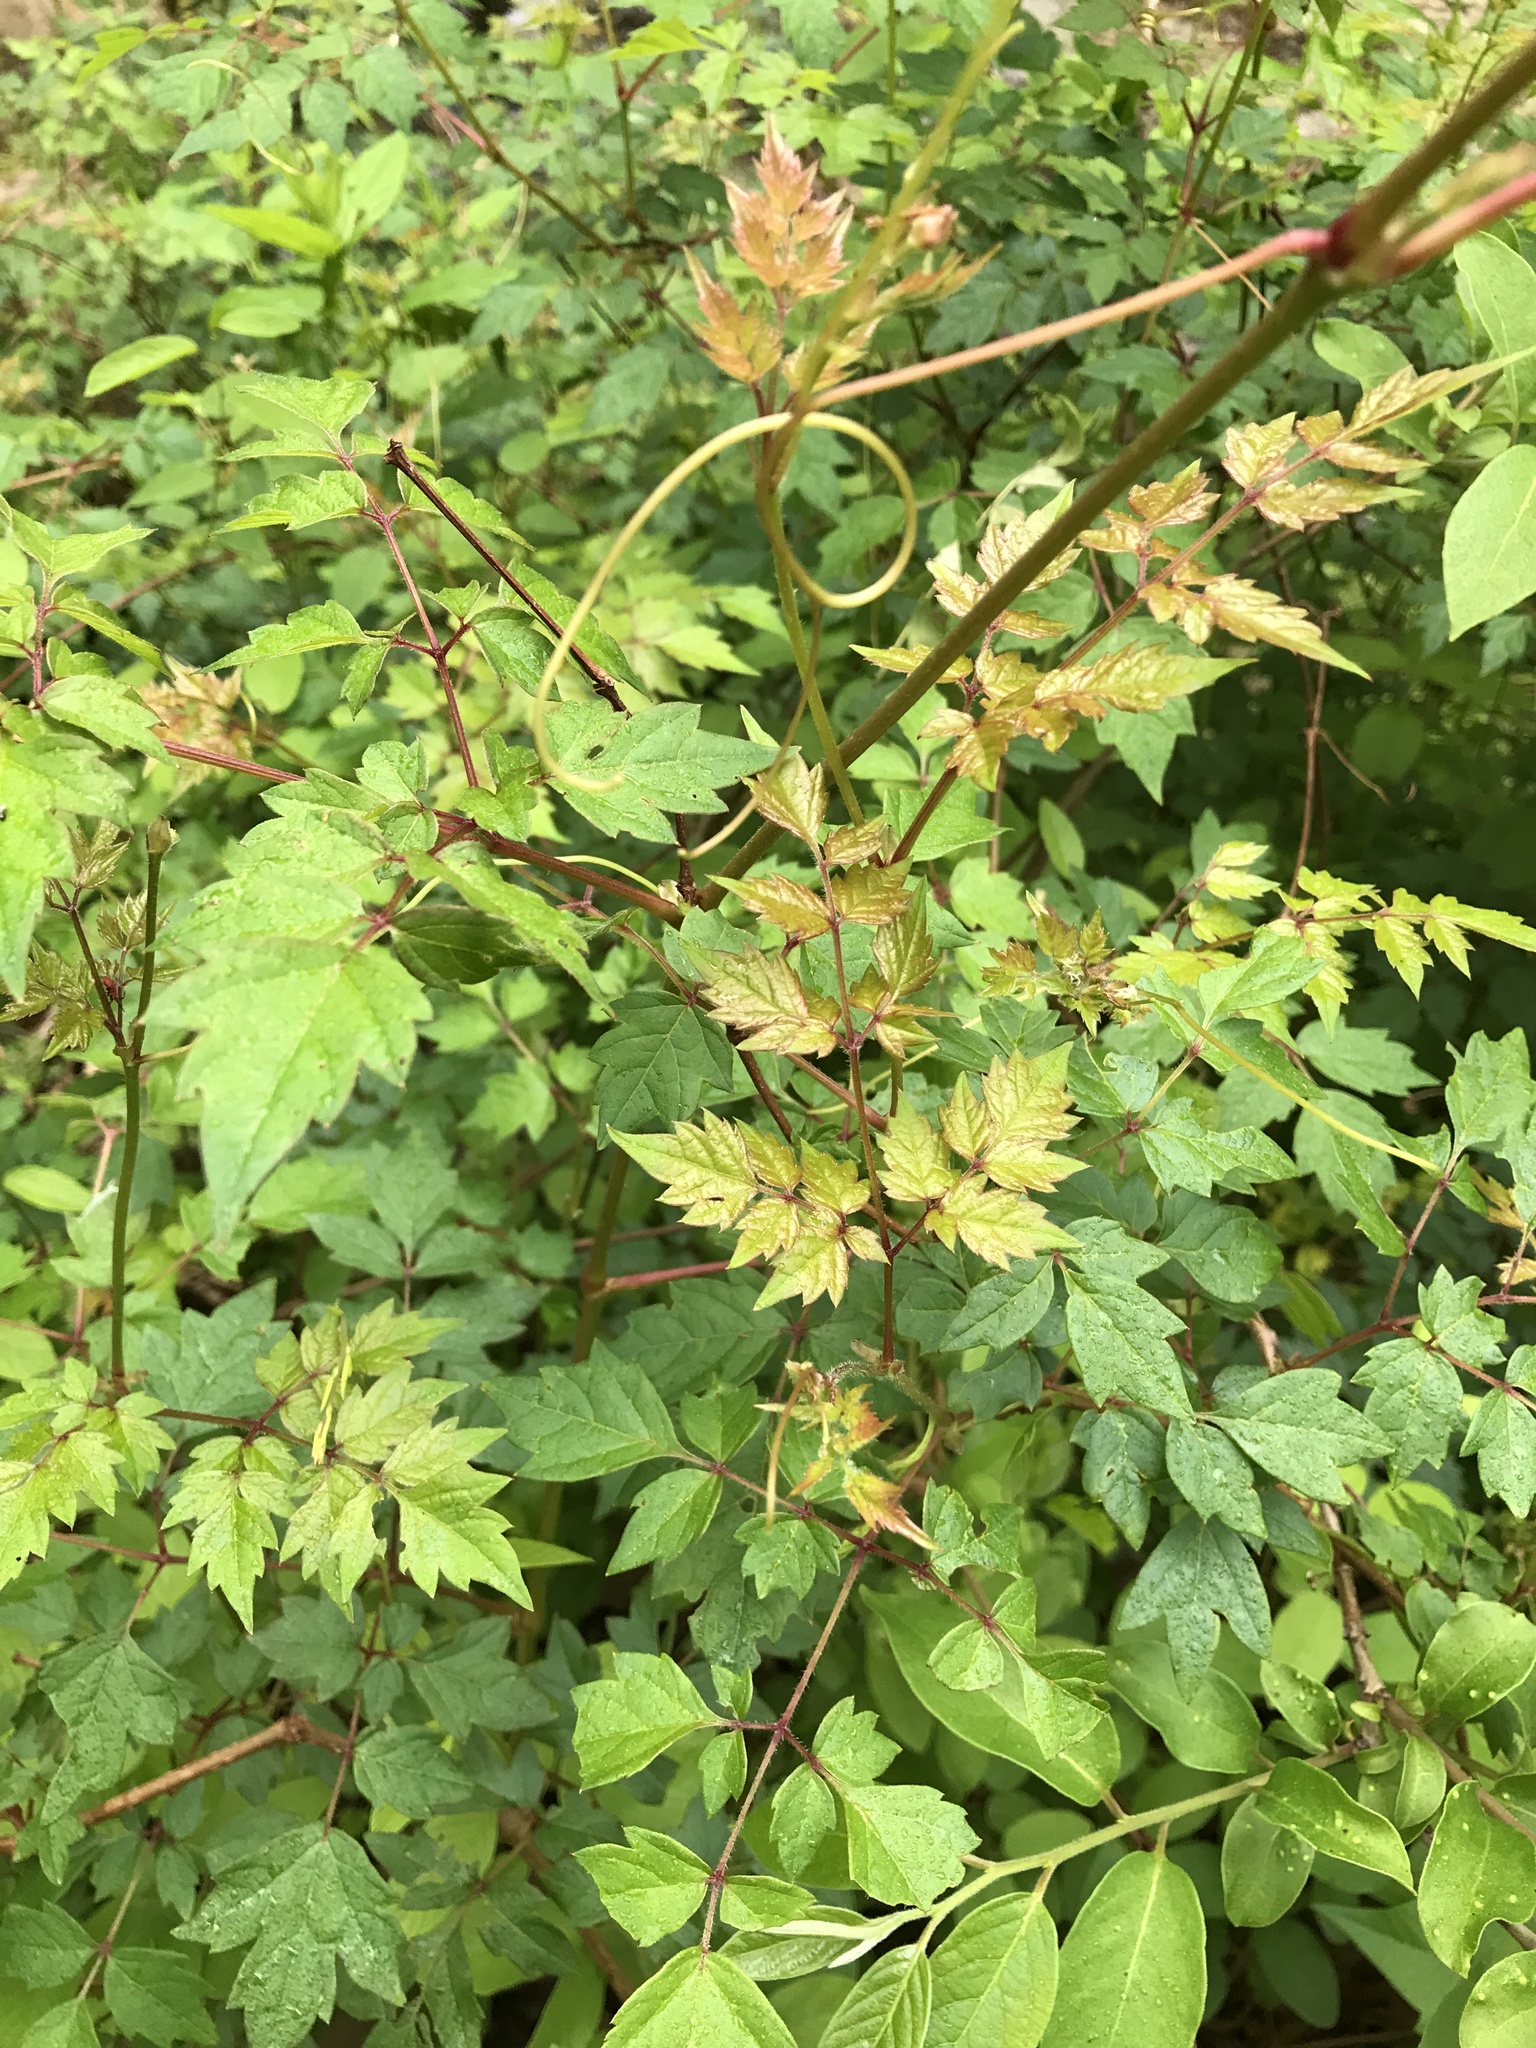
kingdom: Plantae
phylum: Tracheophyta
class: Magnoliopsida
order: Vitales
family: Vitaceae
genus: Nekemias
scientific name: Nekemias arborea
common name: Peppervine
